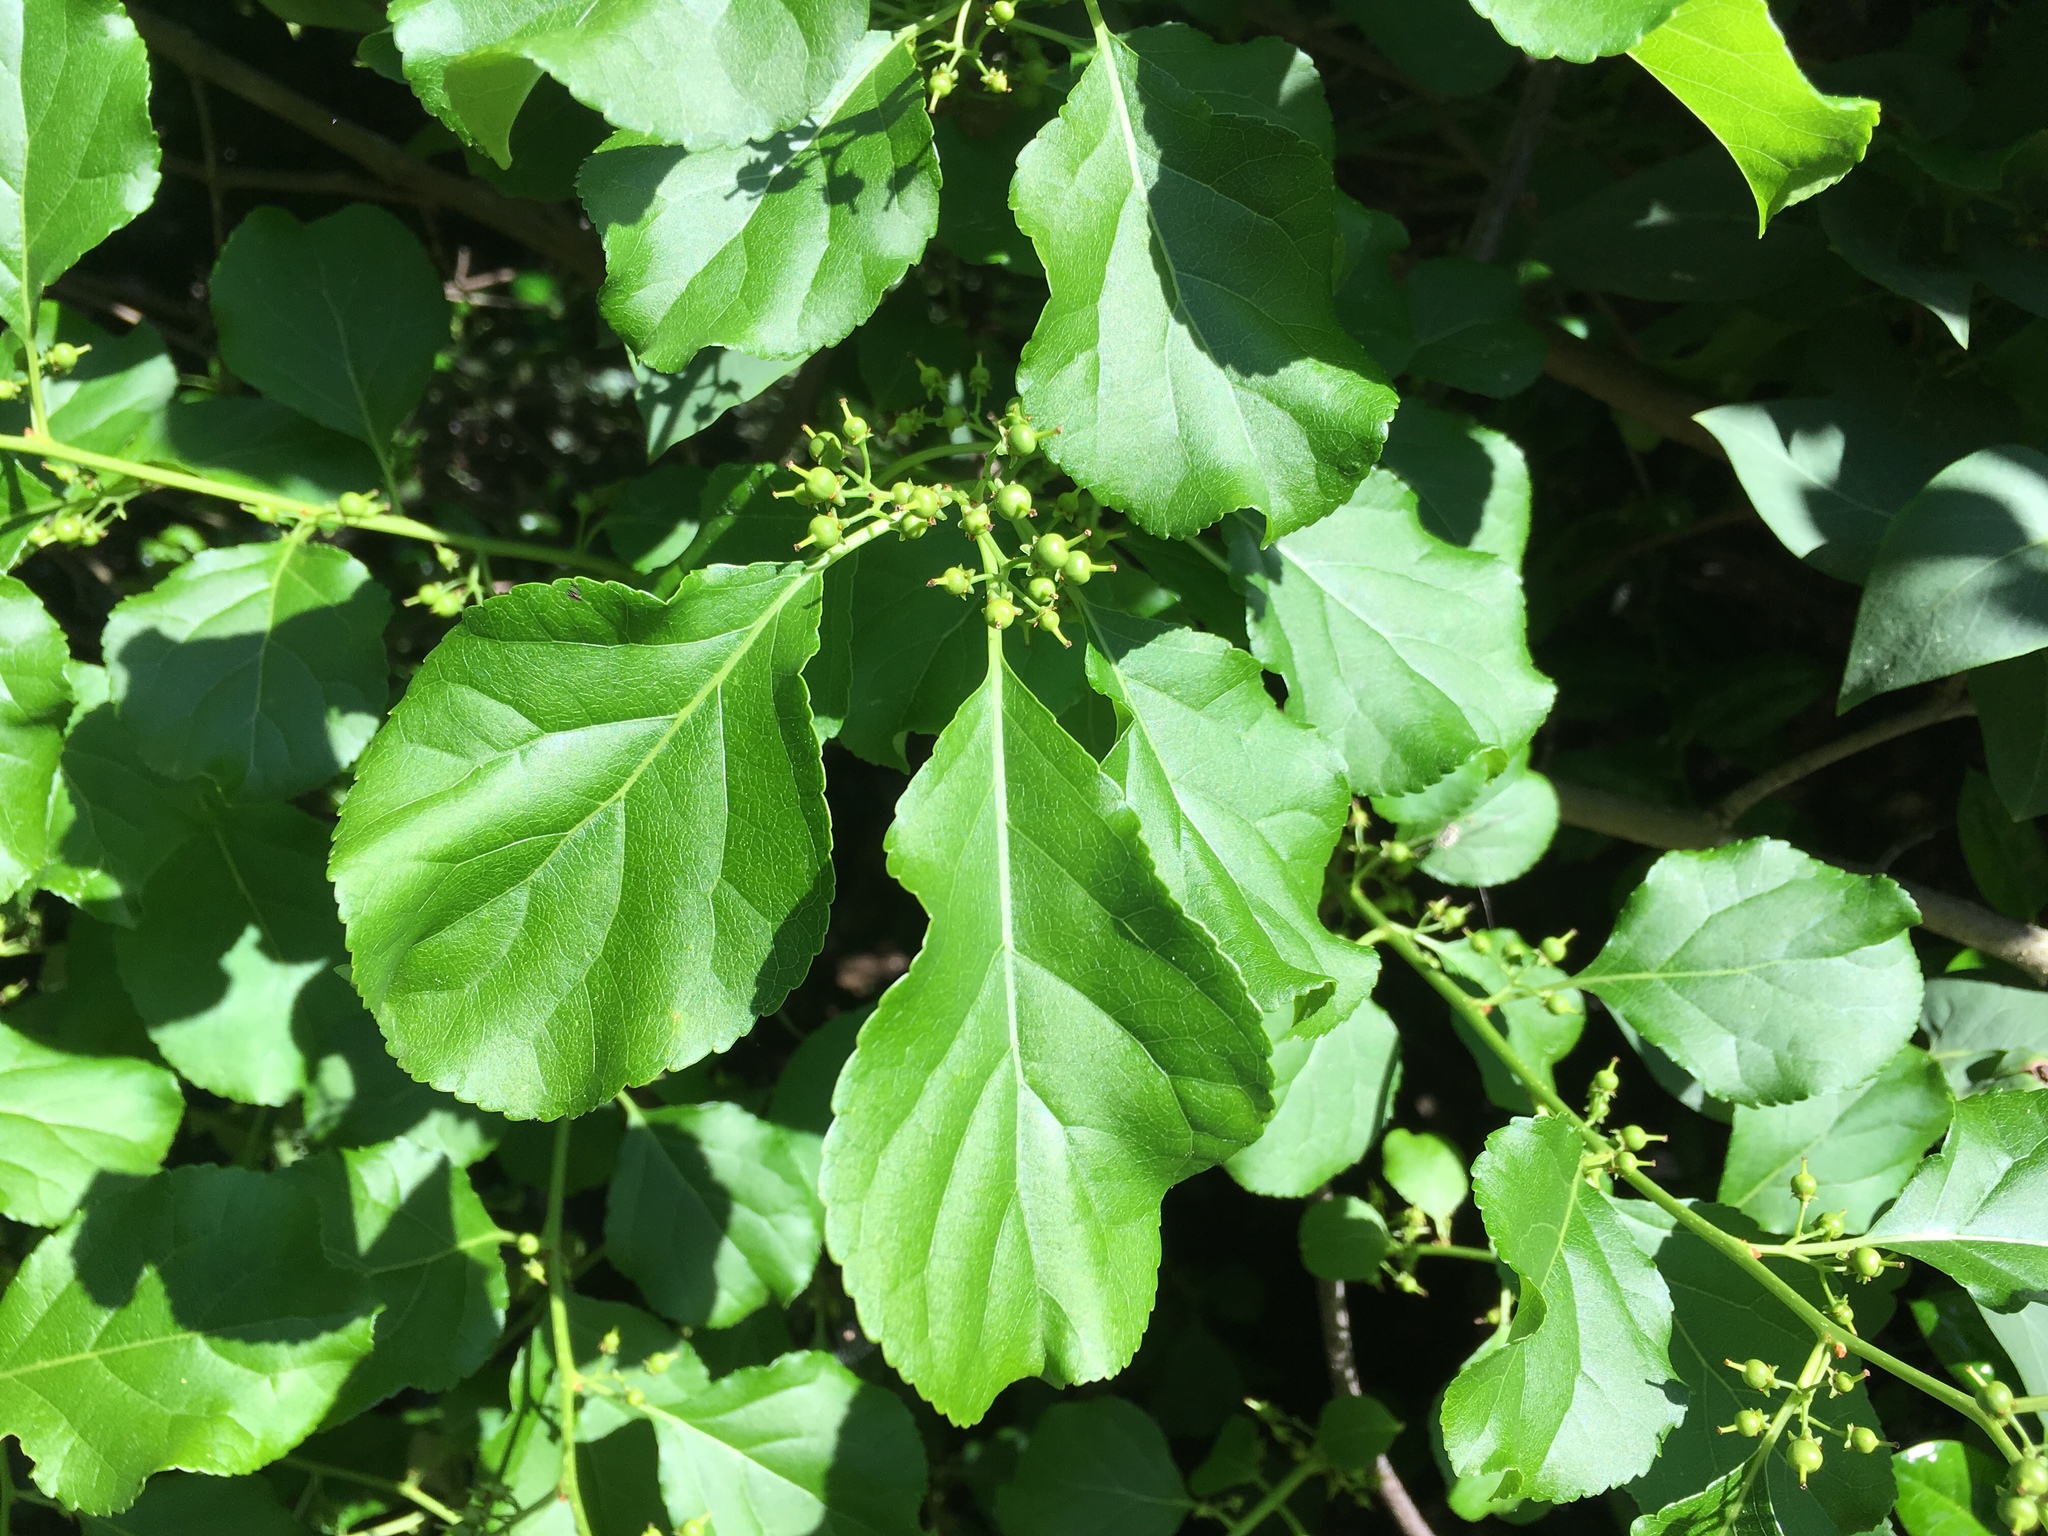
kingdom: Plantae
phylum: Tracheophyta
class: Magnoliopsida
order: Celastrales
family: Celastraceae
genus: Celastrus
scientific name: Celastrus orbiculatus
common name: Oriental bittersweet
